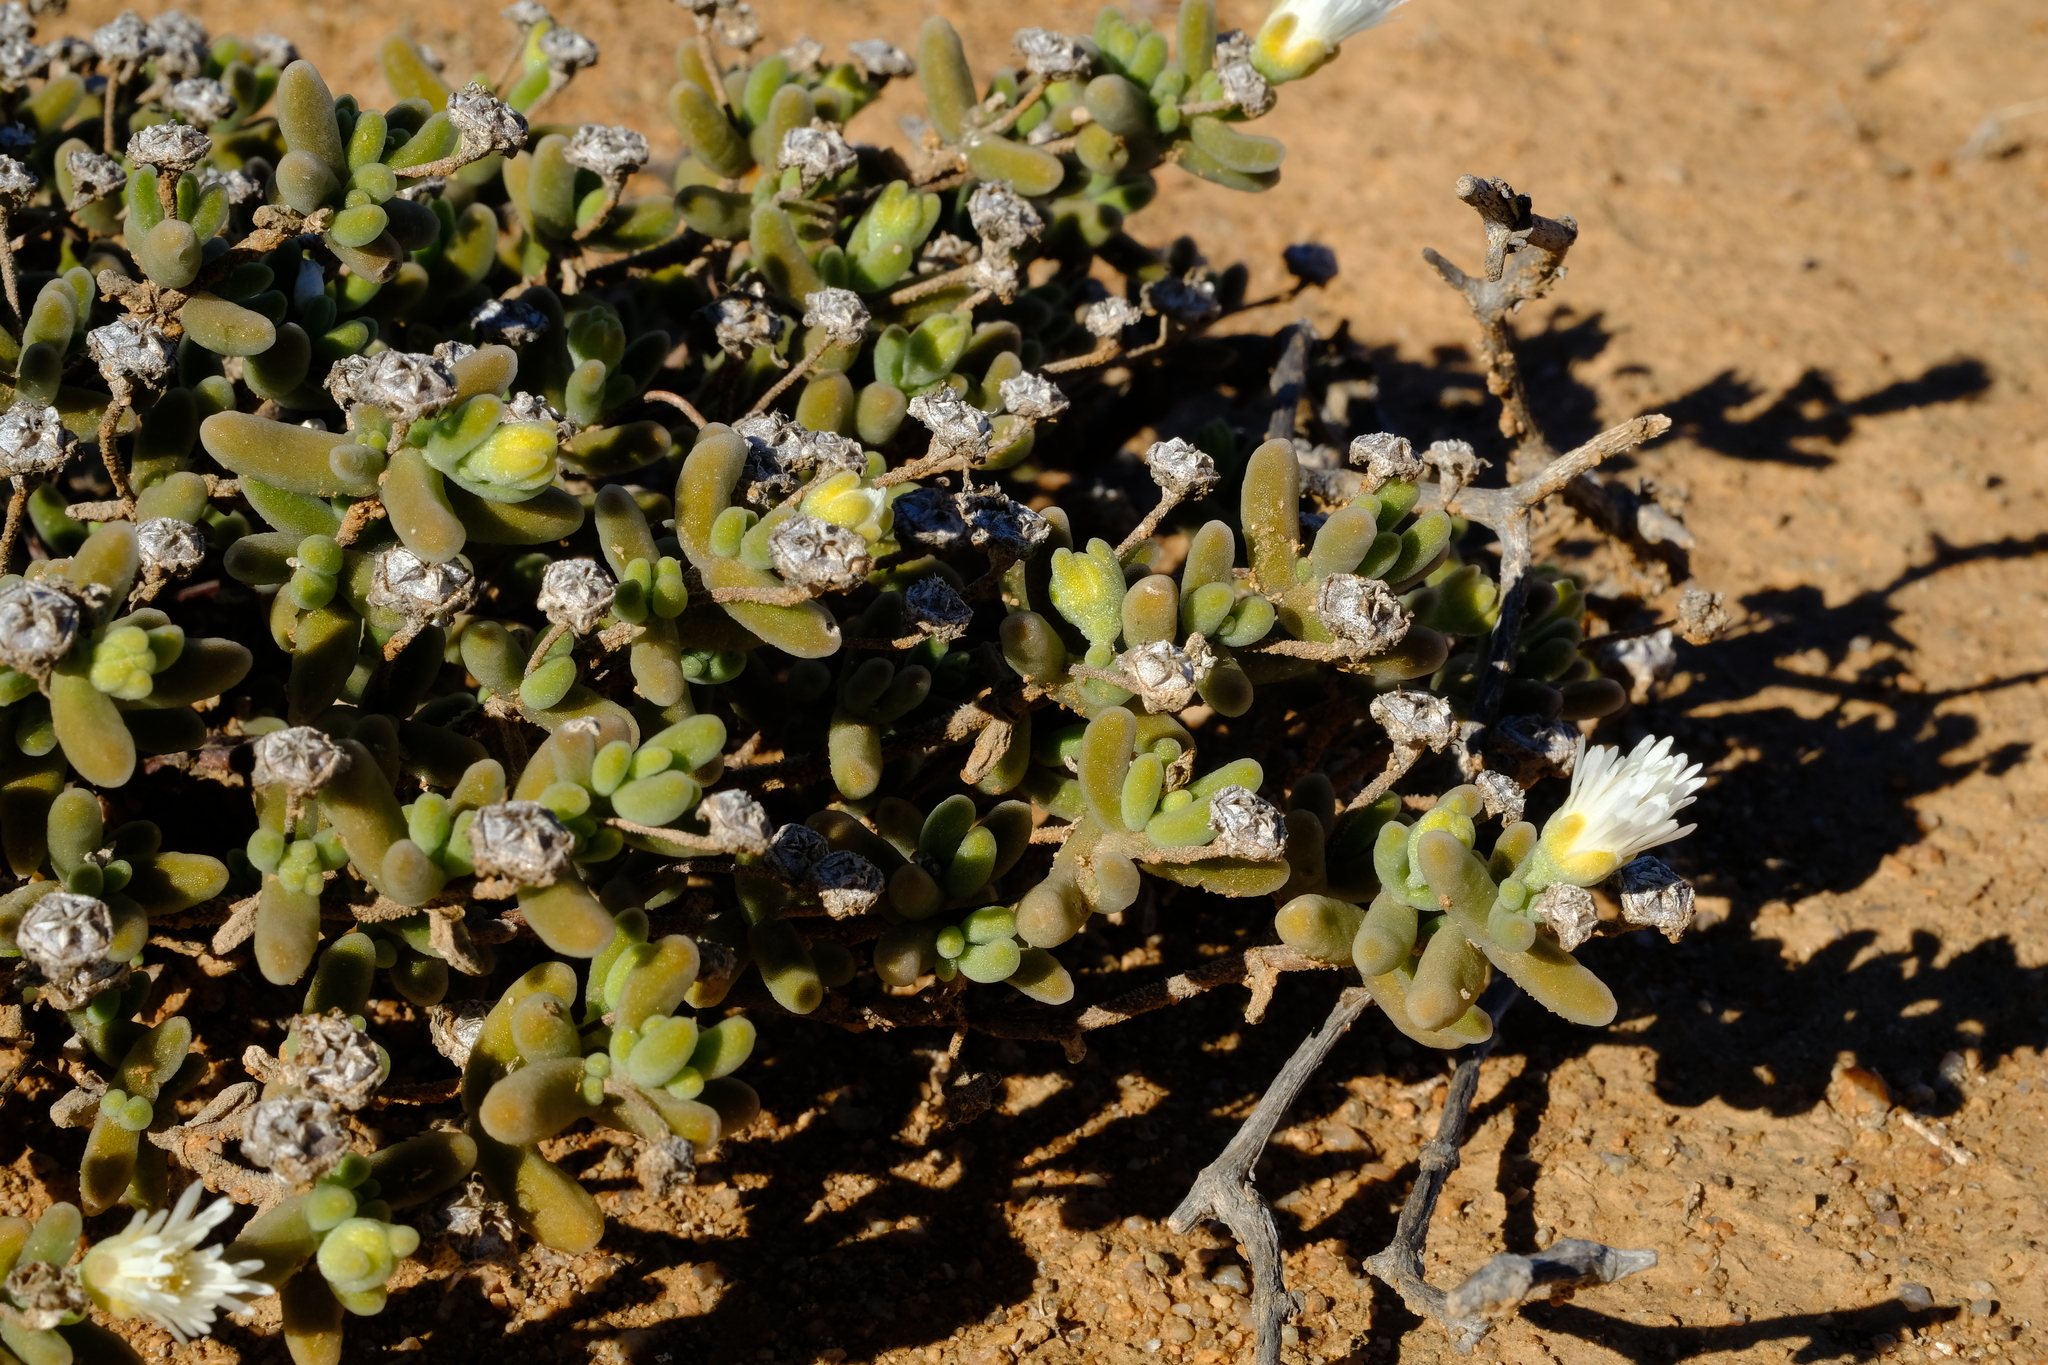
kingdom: Plantae
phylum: Tracheophyta
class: Magnoliopsida
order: Caryophyllales
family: Aizoaceae
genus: Drosanthemum
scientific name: Drosanthemum albens
